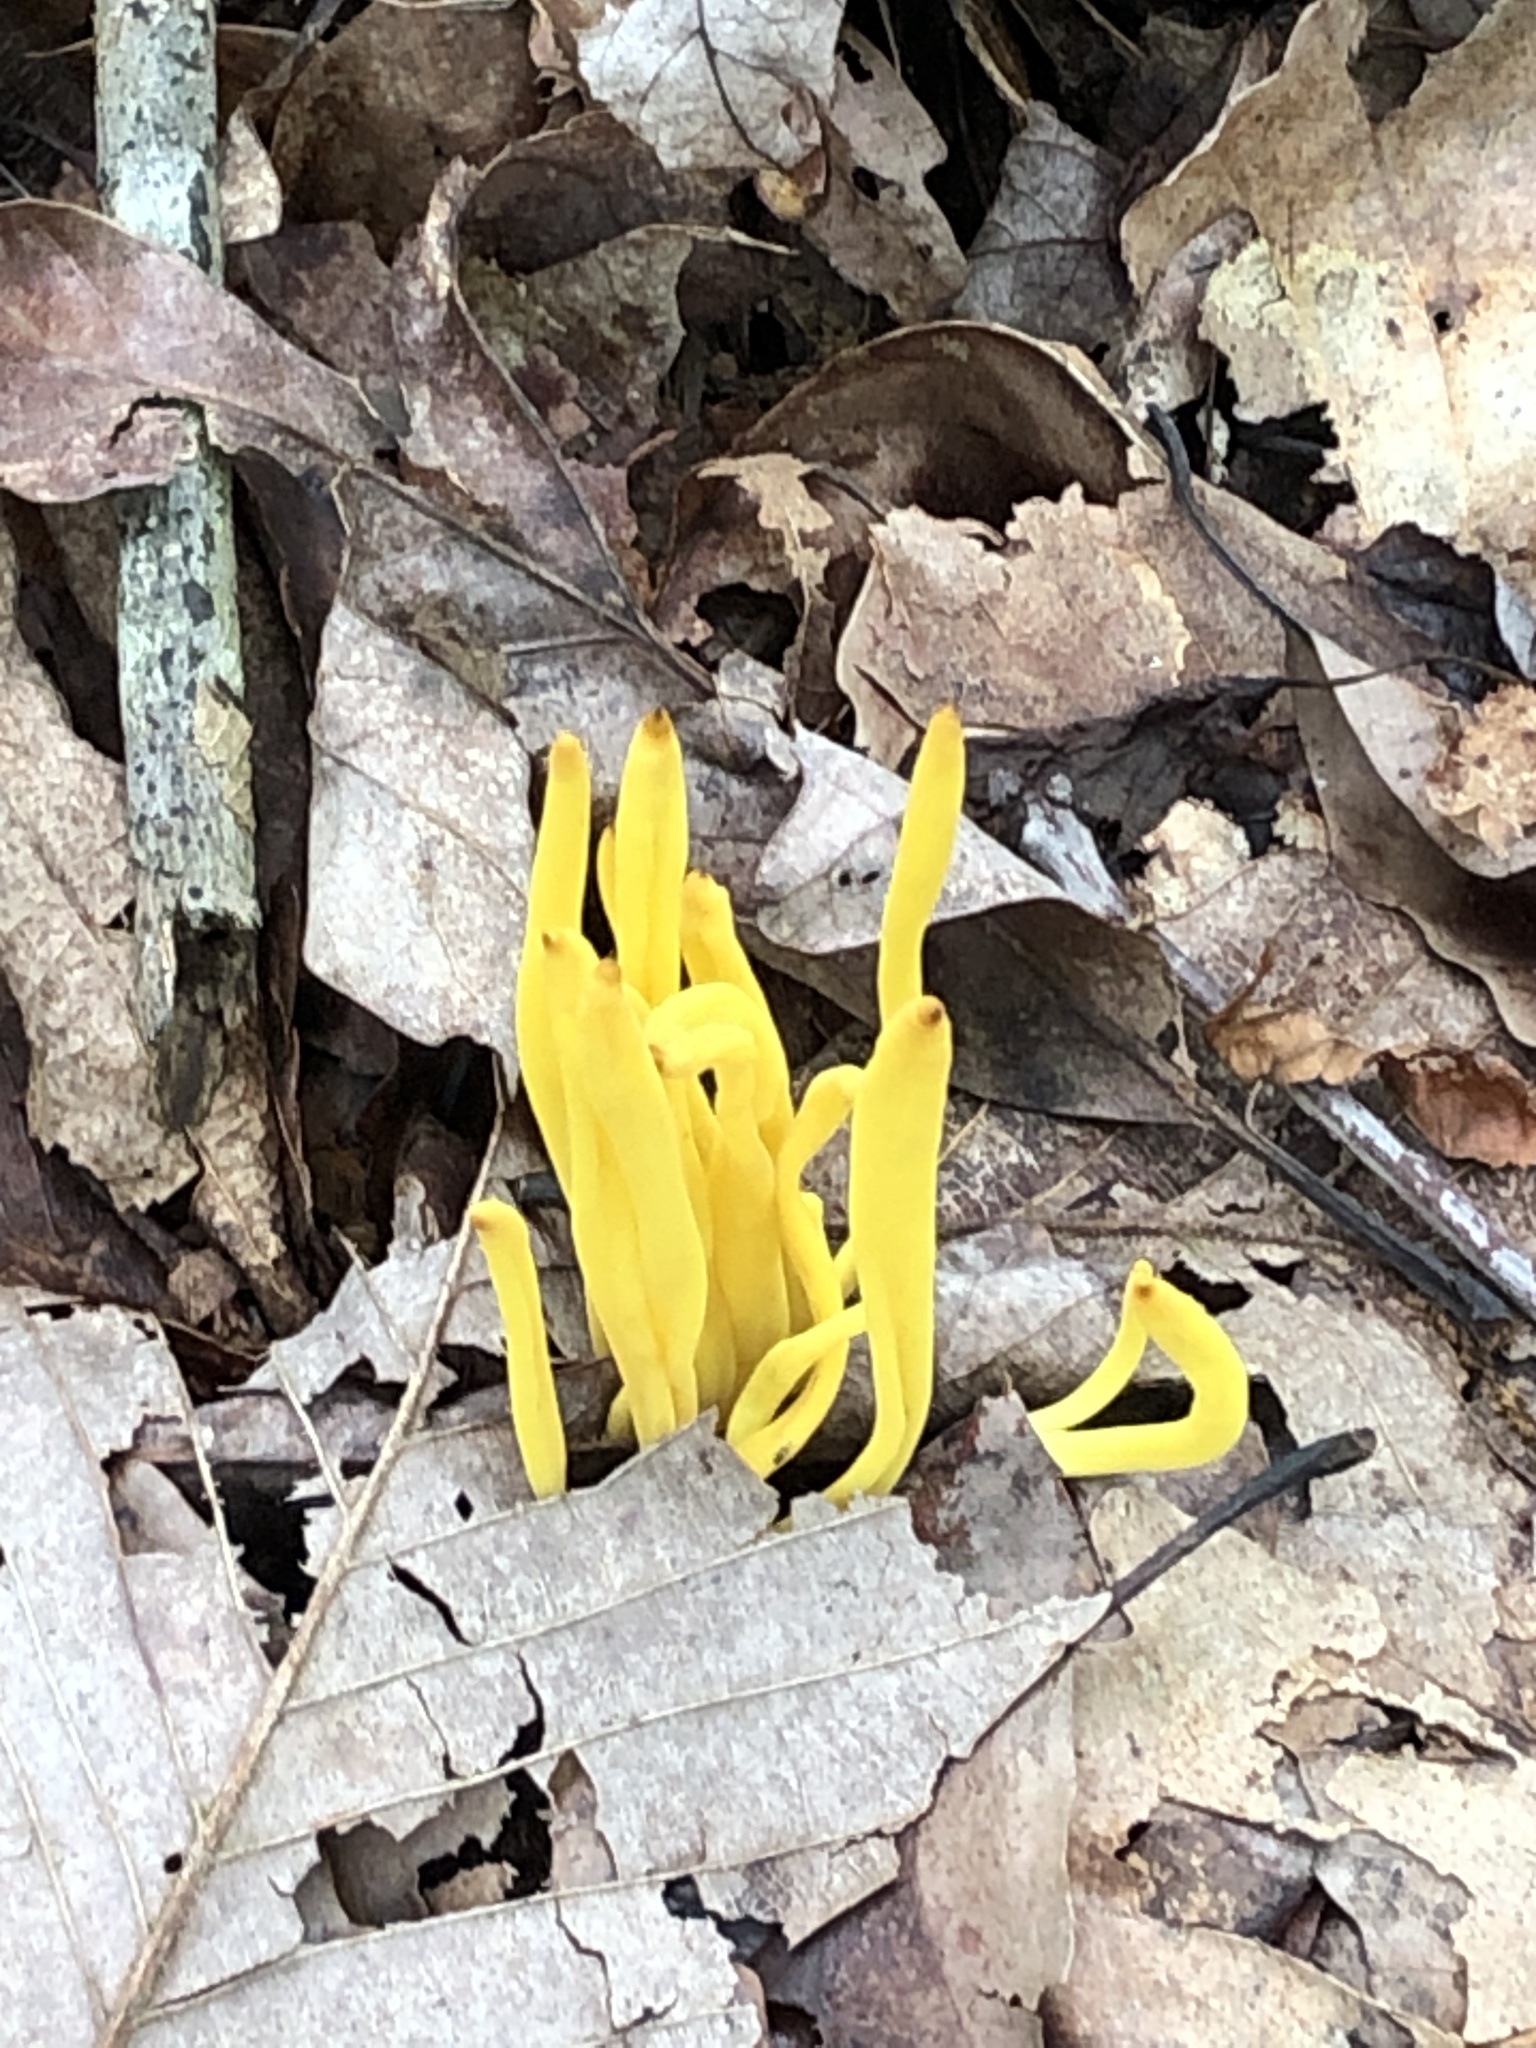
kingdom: Fungi
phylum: Basidiomycota
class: Agaricomycetes
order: Agaricales
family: Clavariaceae
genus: Clavulinopsis
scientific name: Clavulinopsis fusiformis
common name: Golden spindles
